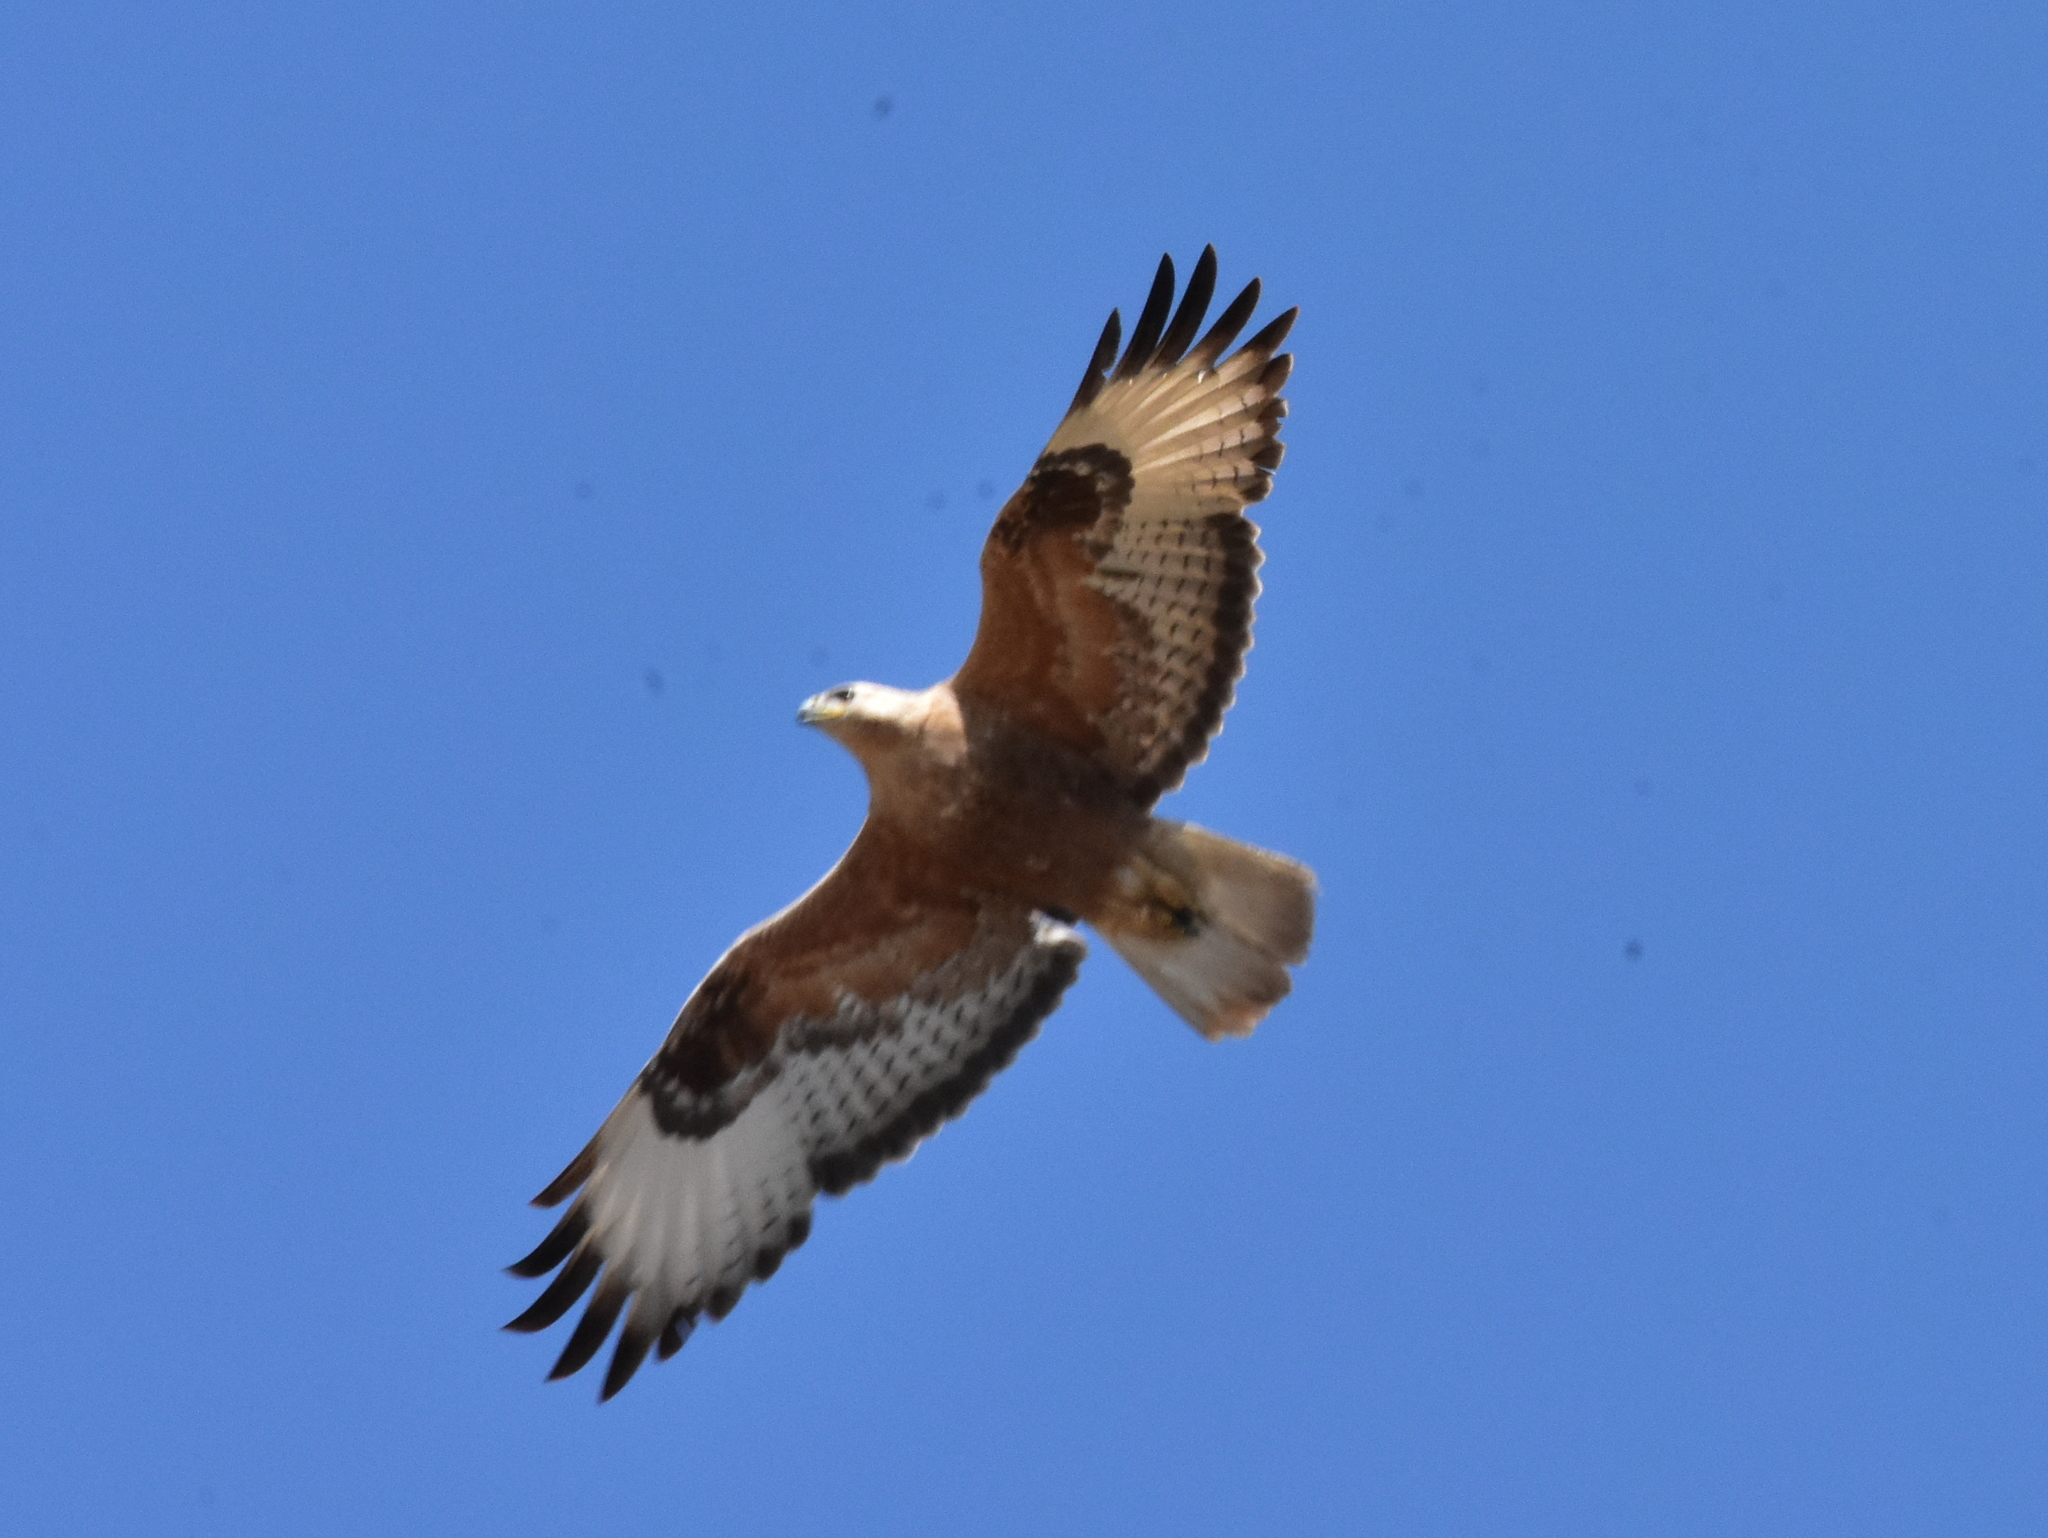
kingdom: Animalia
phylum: Chordata
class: Aves
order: Accipitriformes
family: Accipitridae
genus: Buteo
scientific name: Buteo rufinus
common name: Long-legged buzzard
